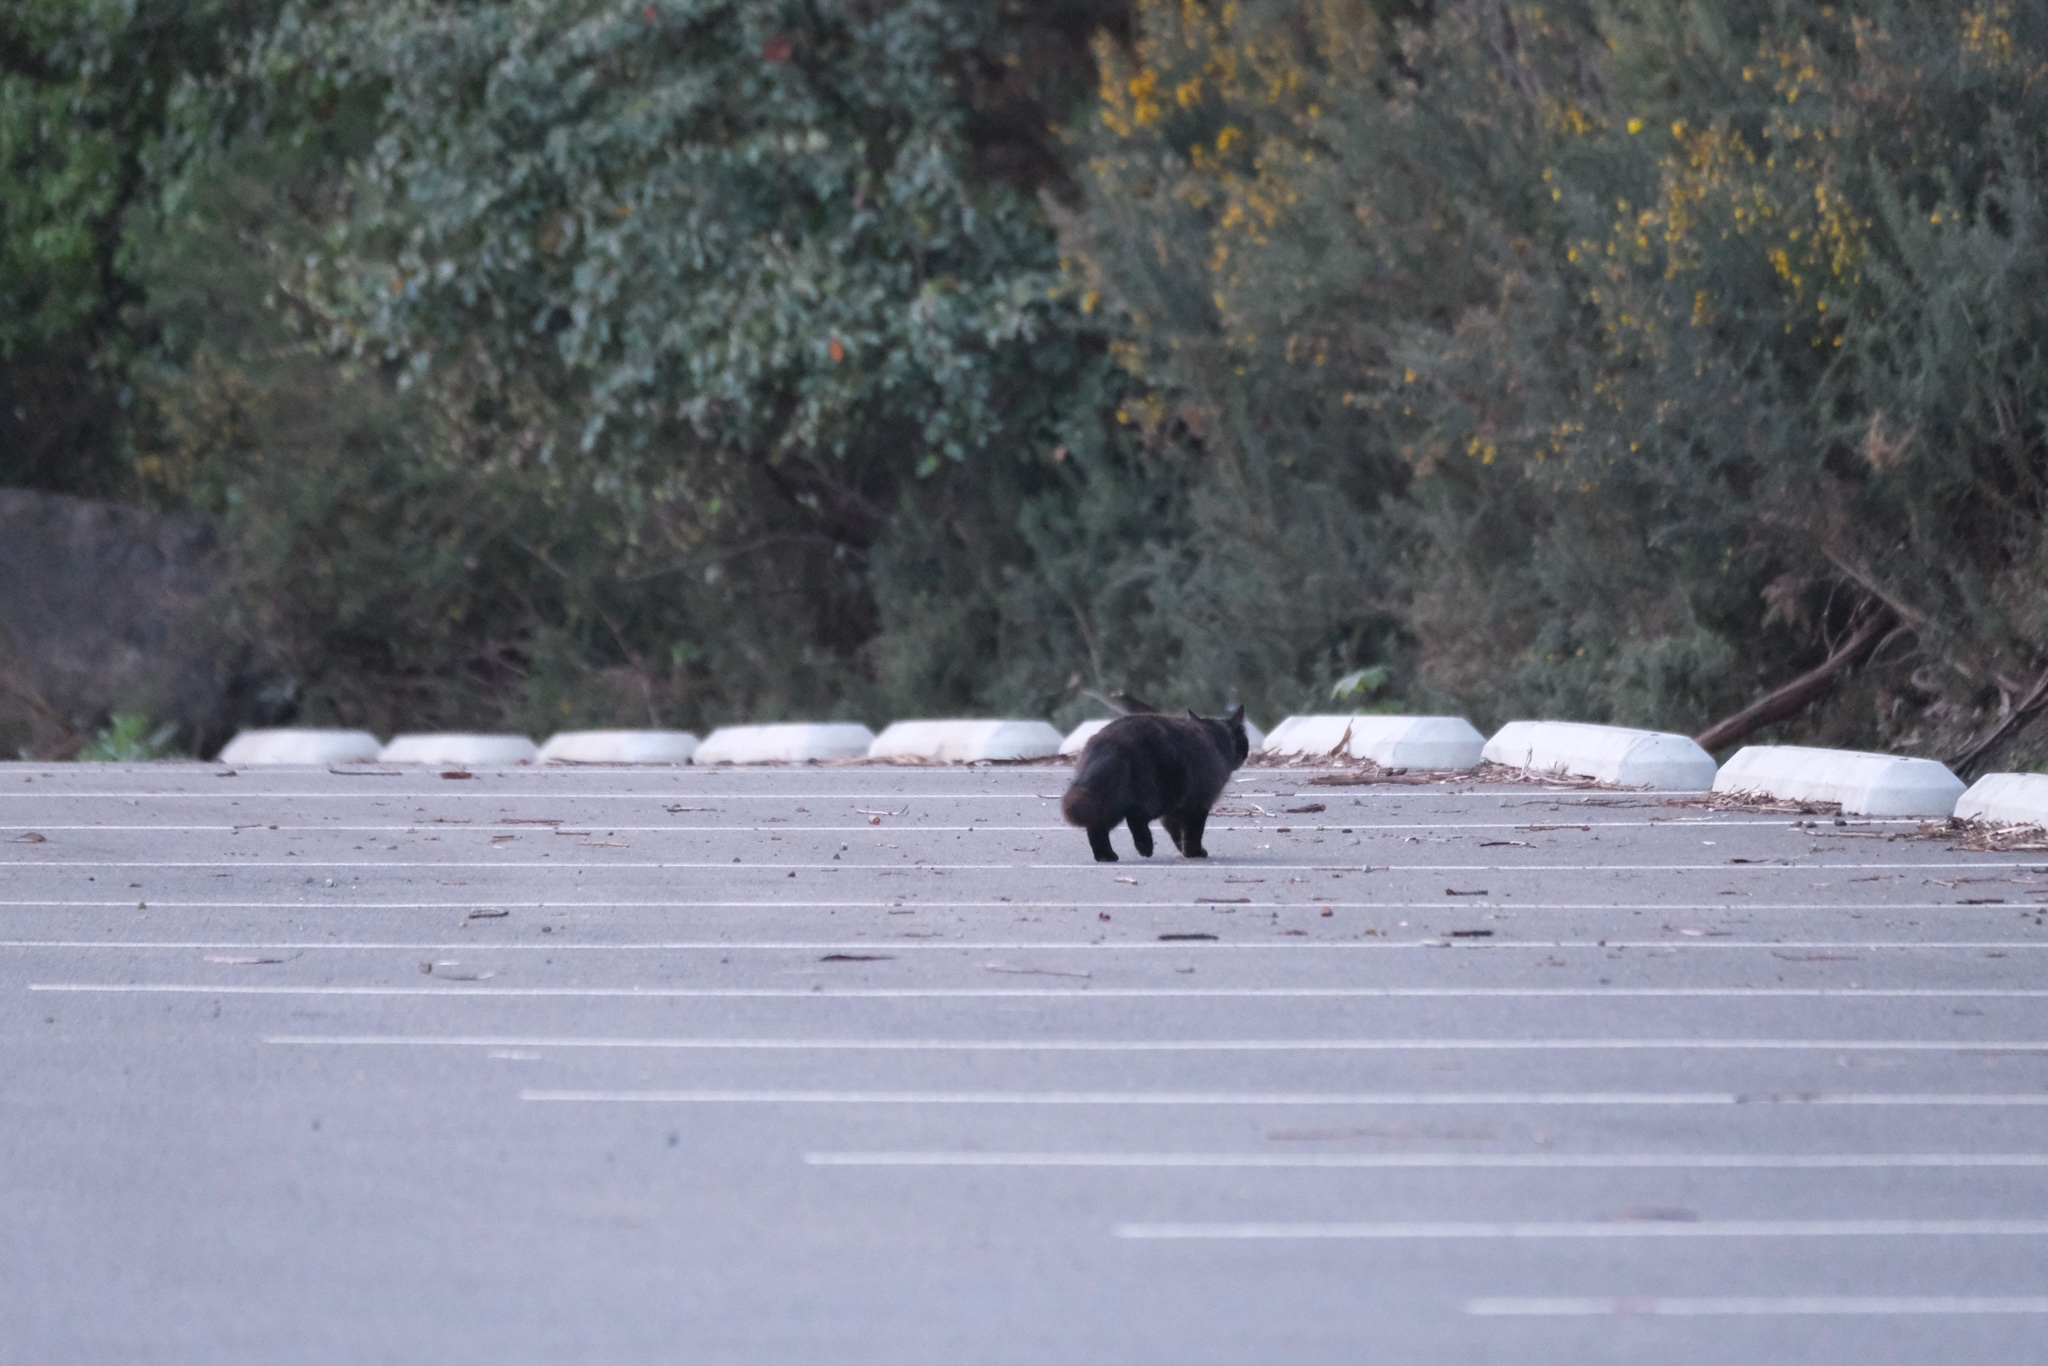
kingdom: Animalia
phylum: Chordata
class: Mammalia
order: Carnivora
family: Felidae
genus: Felis
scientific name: Felis catus
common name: Domestic cat
